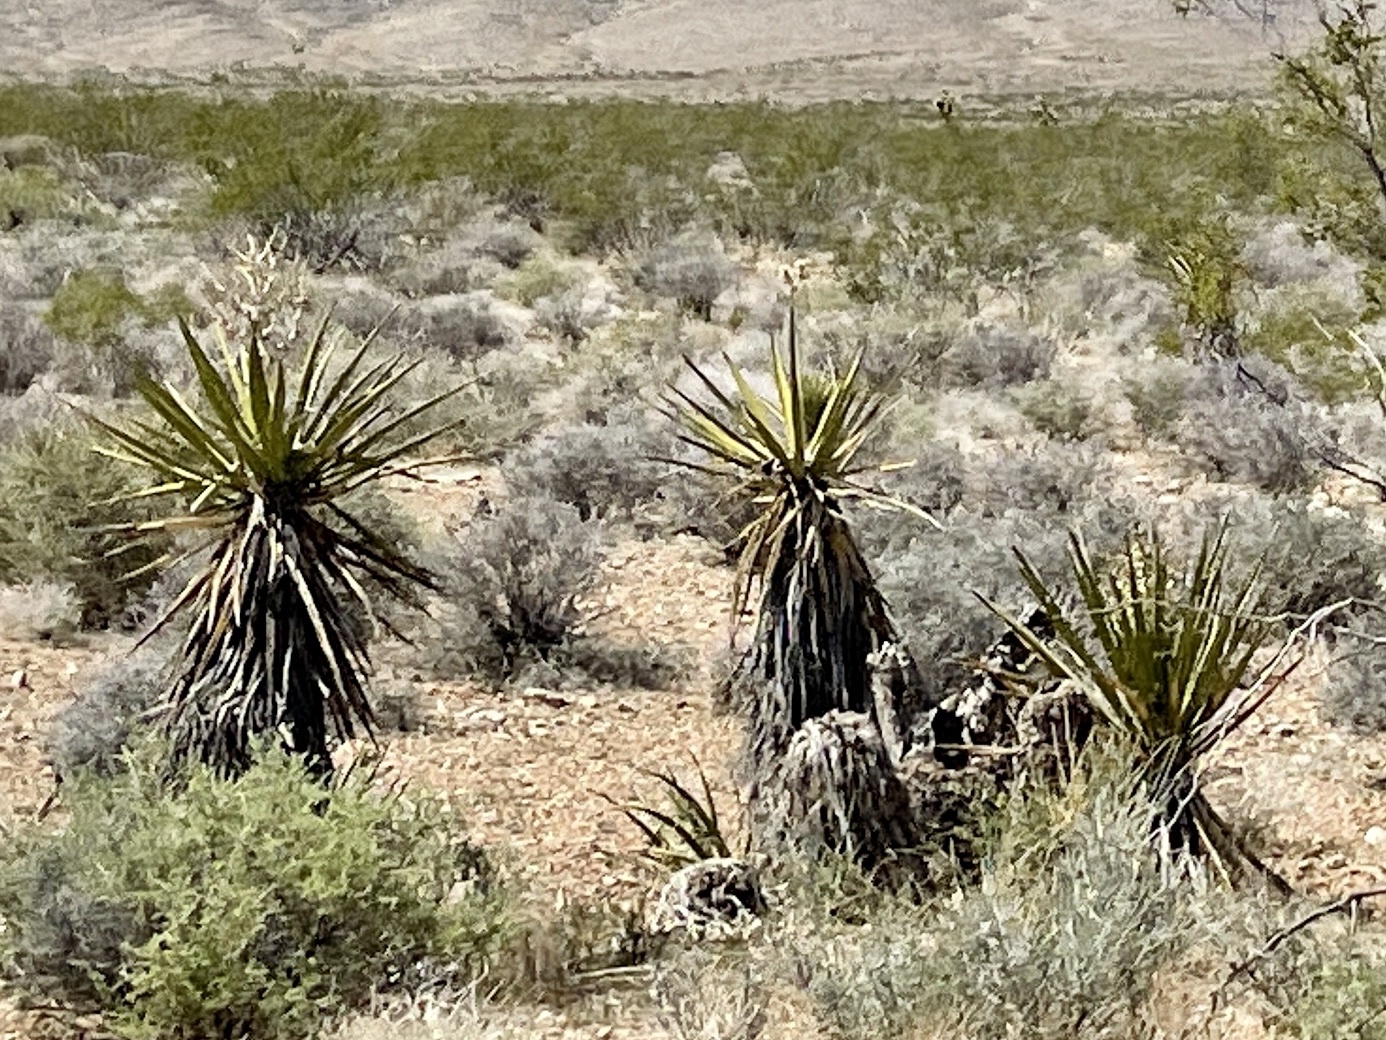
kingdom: Plantae
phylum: Tracheophyta
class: Liliopsida
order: Asparagales
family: Asparagaceae
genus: Yucca
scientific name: Yucca schidigera
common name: Mojave yucca
